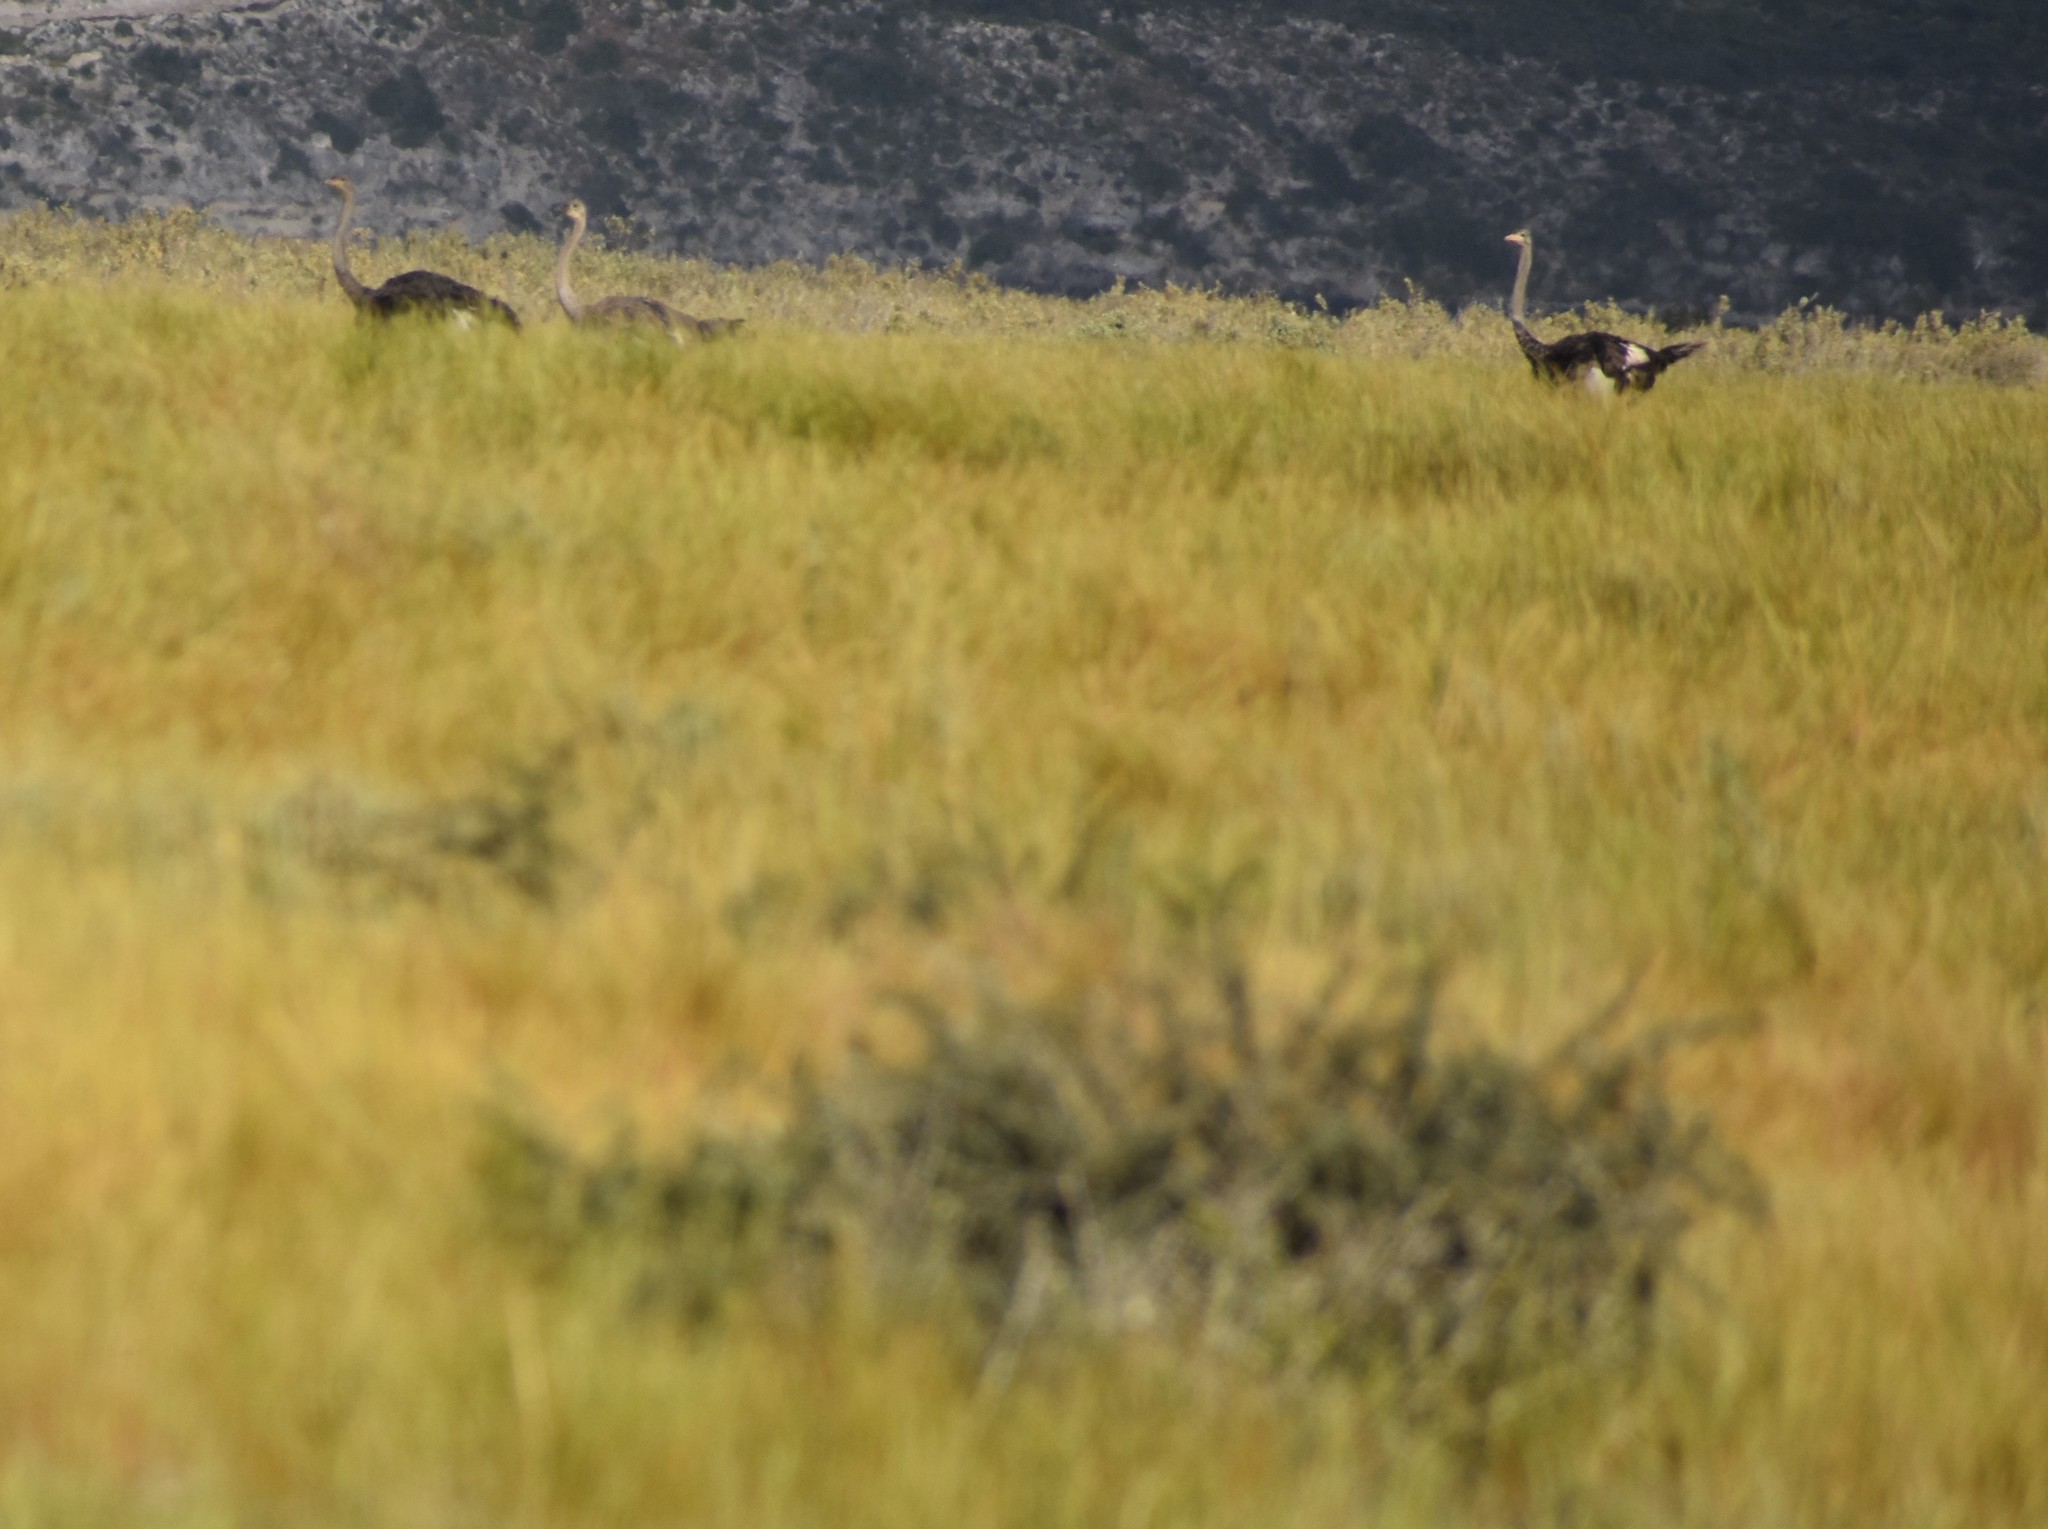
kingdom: Animalia
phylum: Chordata
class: Aves
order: Struthioniformes
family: Struthionidae
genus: Struthio
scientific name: Struthio camelus
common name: Common ostrich
